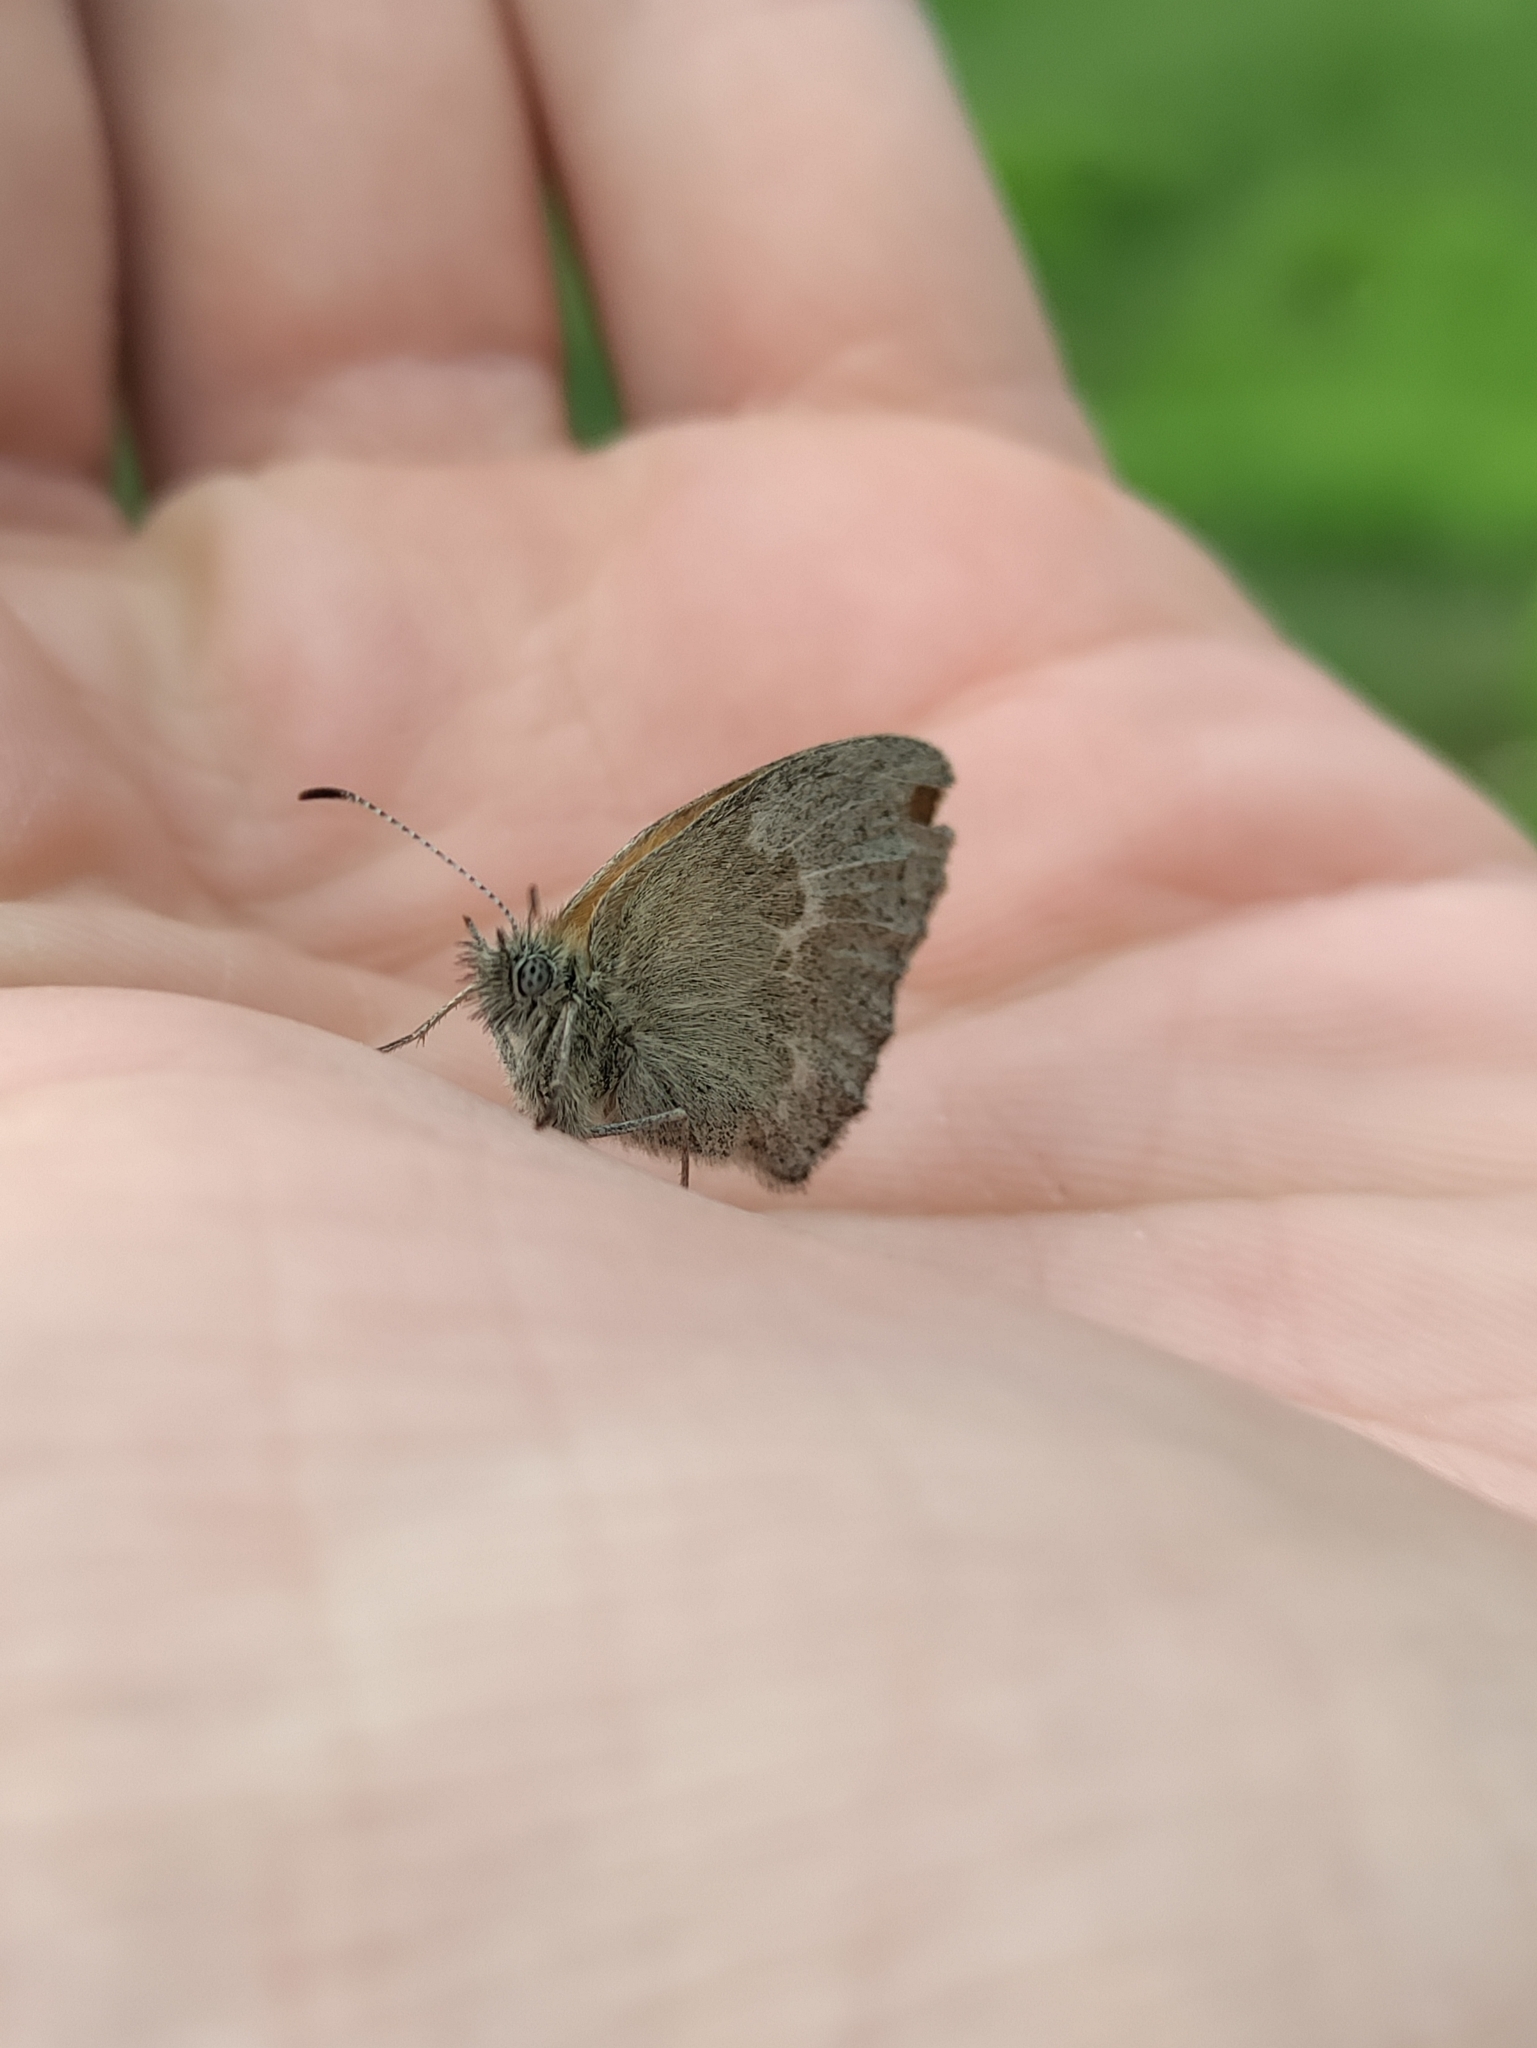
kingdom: Animalia
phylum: Arthropoda
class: Insecta
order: Lepidoptera
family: Nymphalidae
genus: Coenonympha
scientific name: Coenonympha california
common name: Common ringlet
